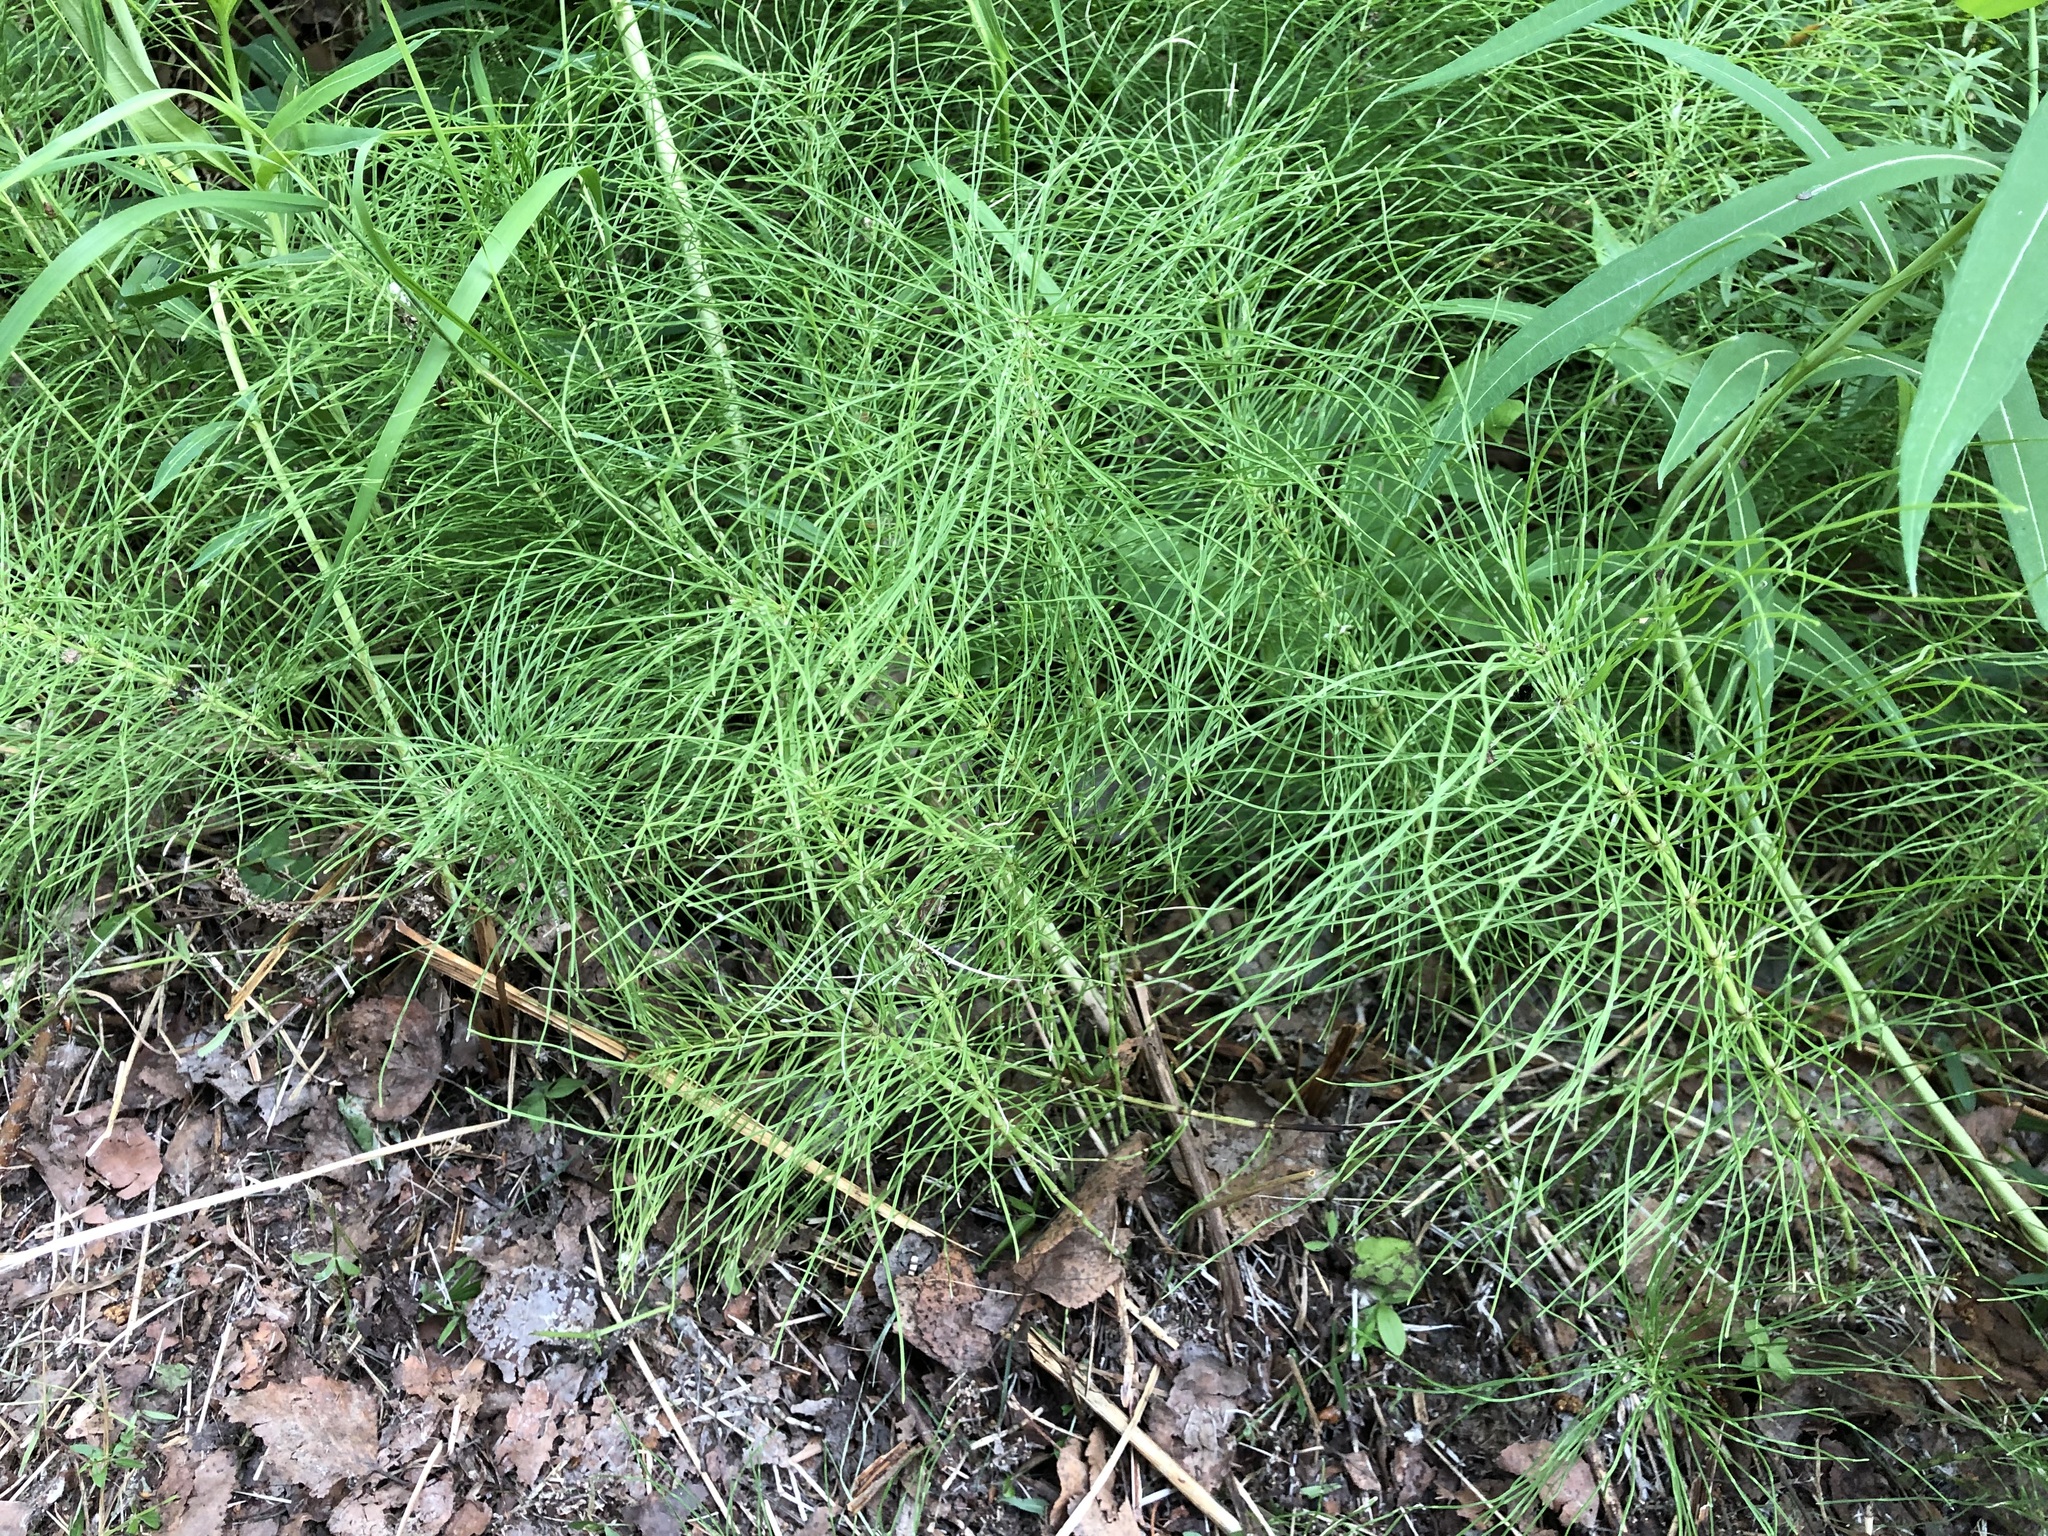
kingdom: Plantae
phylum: Tracheophyta
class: Polypodiopsida
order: Equisetales
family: Equisetaceae
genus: Equisetum
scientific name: Equisetum pratense
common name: Meadow horsetail
